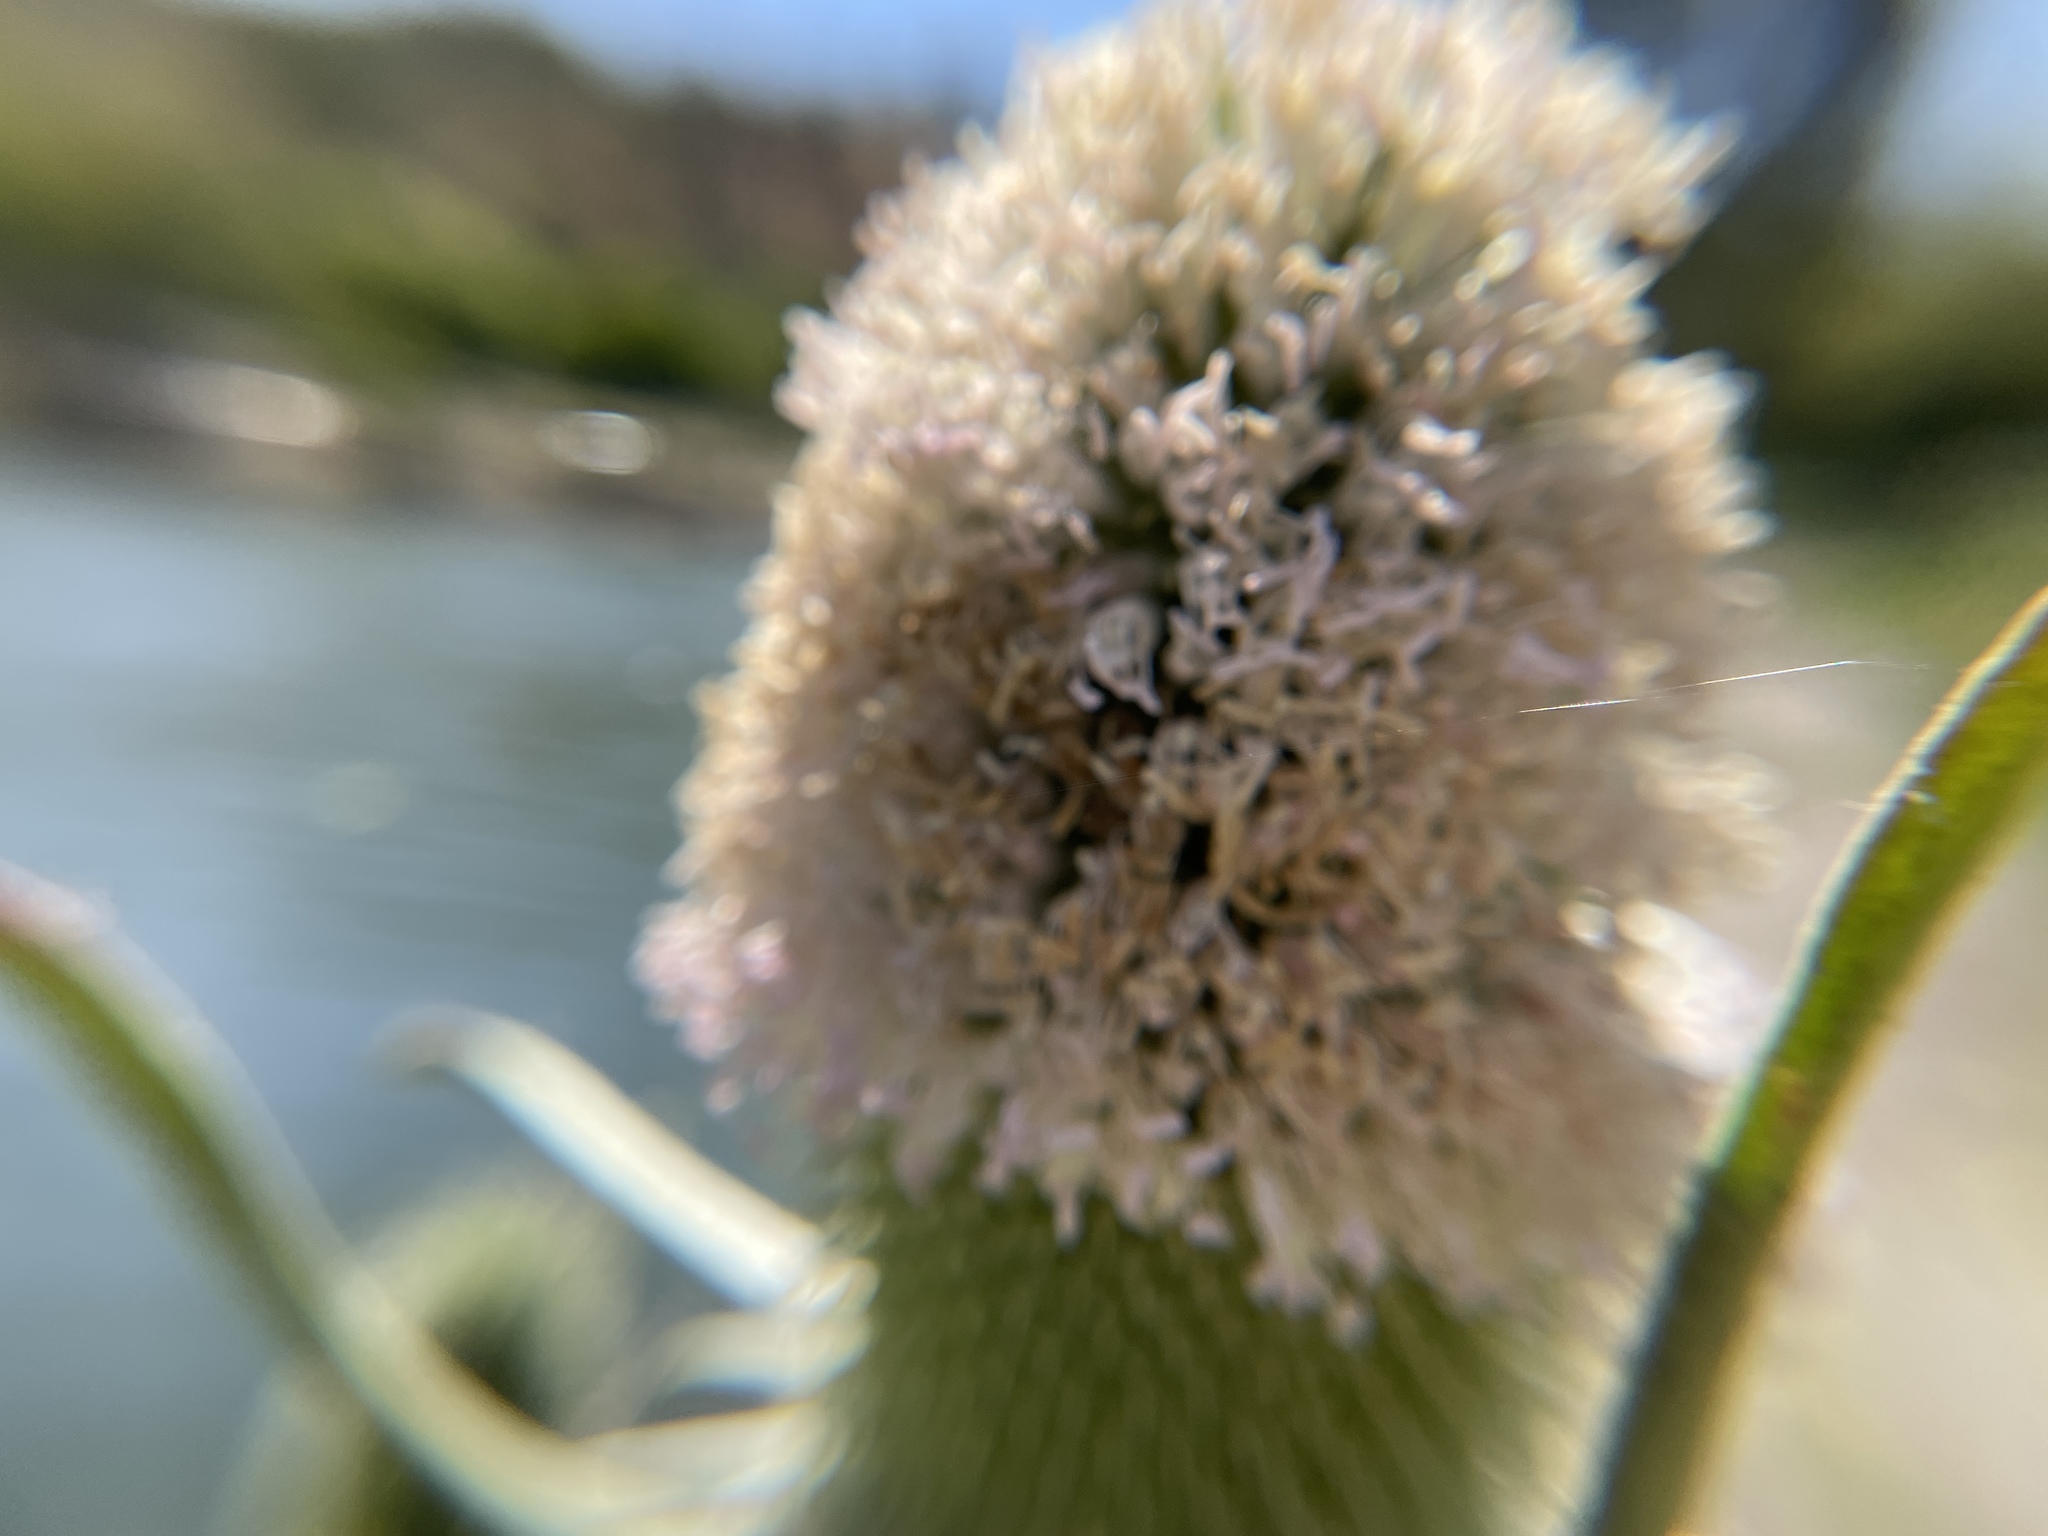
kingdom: Plantae
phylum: Tracheophyta
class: Magnoliopsida
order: Dipsacales
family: Caprifoliaceae
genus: Dipsacus
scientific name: Dipsacus sativus
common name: Fuller's teasel
